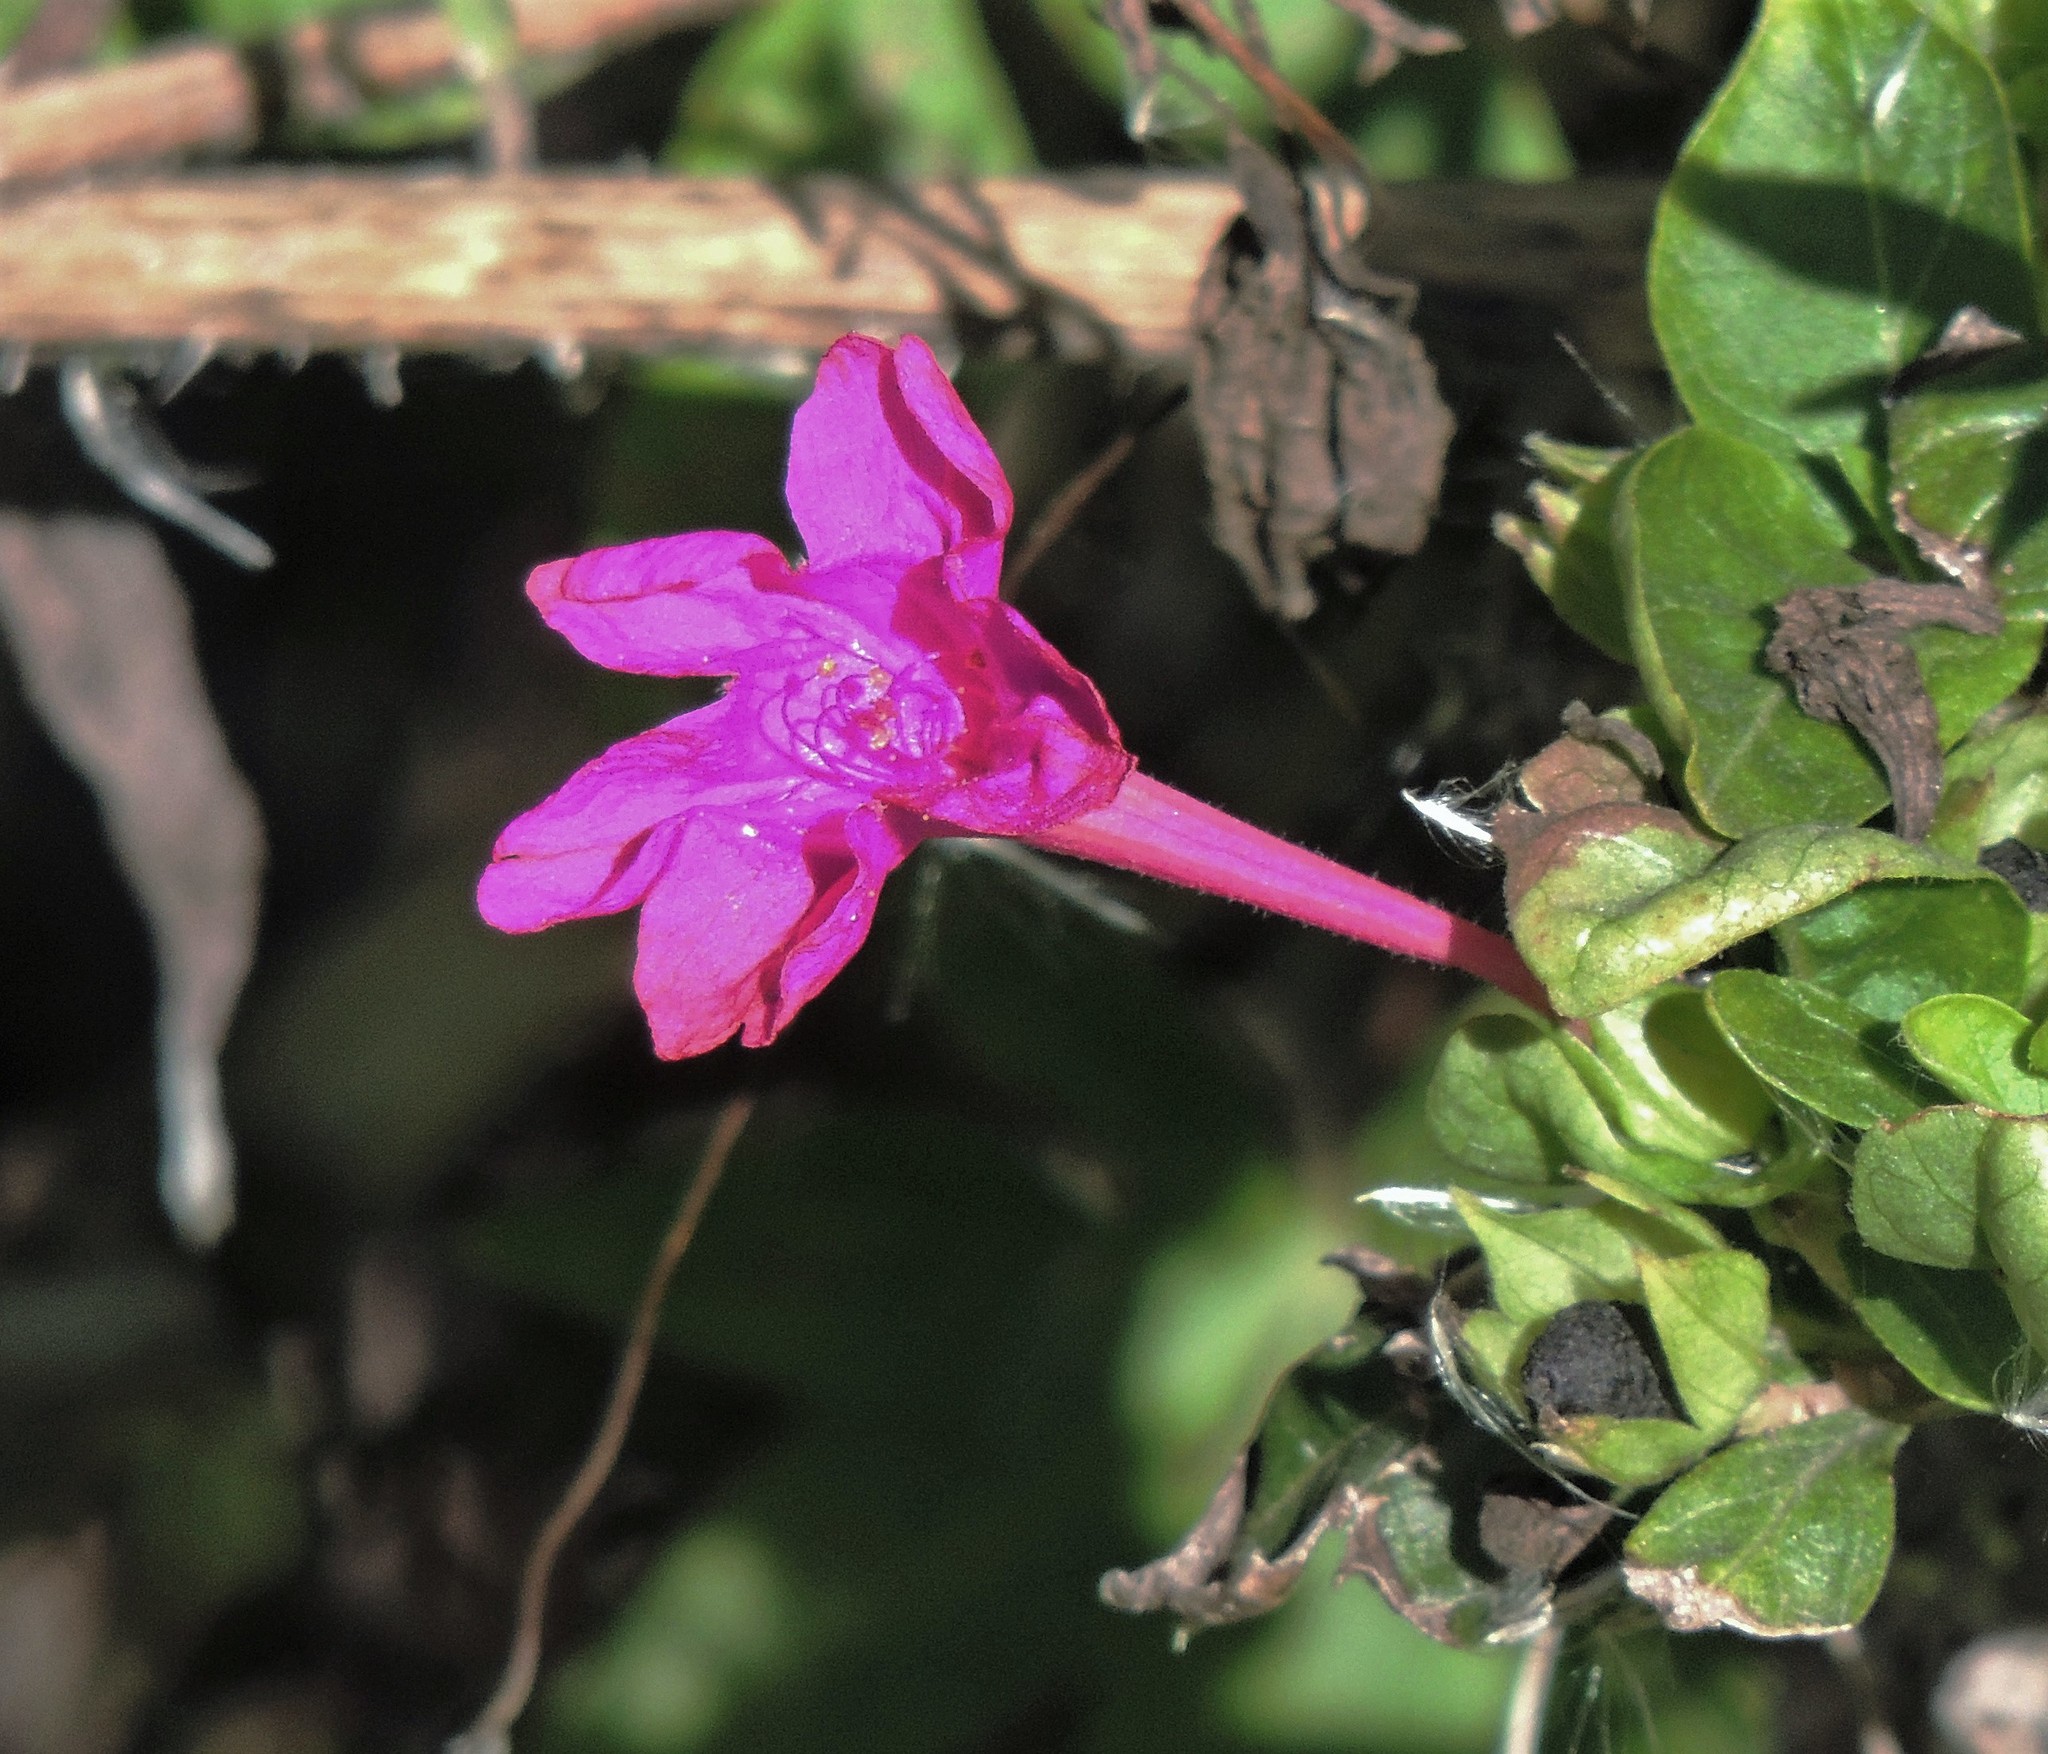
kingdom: Plantae
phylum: Tracheophyta
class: Magnoliopsida
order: Caryophyllales
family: Nyctaginaceae
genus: Mirabilis
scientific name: Mirabilis jalapa
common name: Marvel-of-peru
